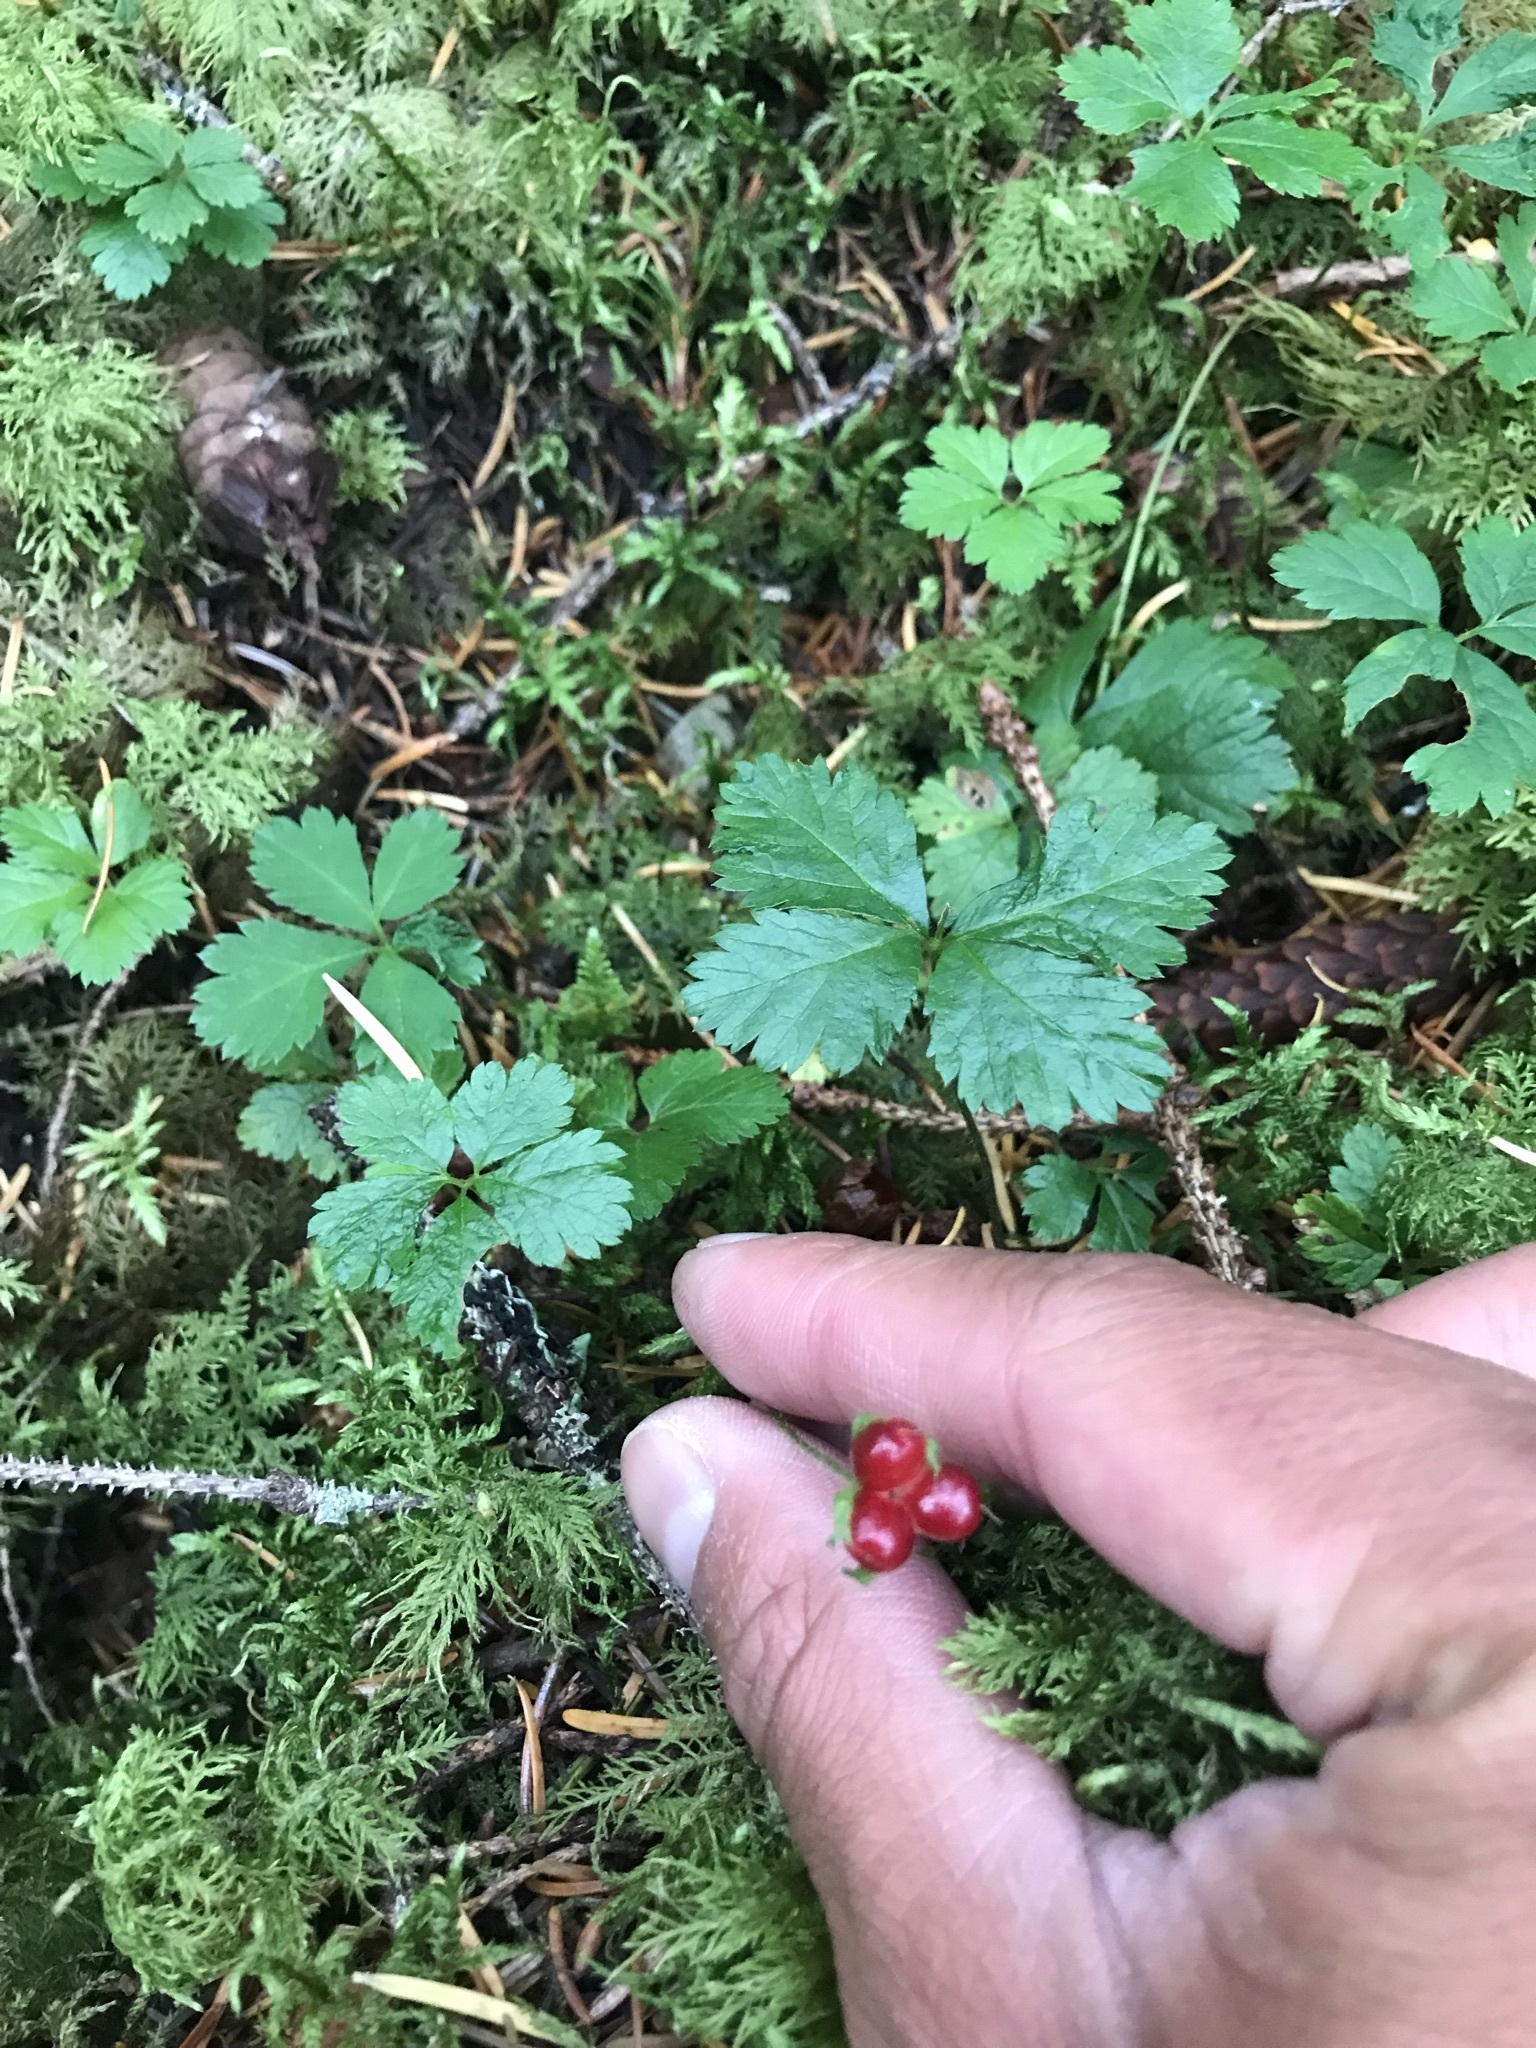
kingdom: Plantae
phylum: Tracheophyta
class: Magnoliopsida
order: Rosales
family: Rosaceae
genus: Rubus
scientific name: Rubus pedatus
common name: Creeping raspberry
